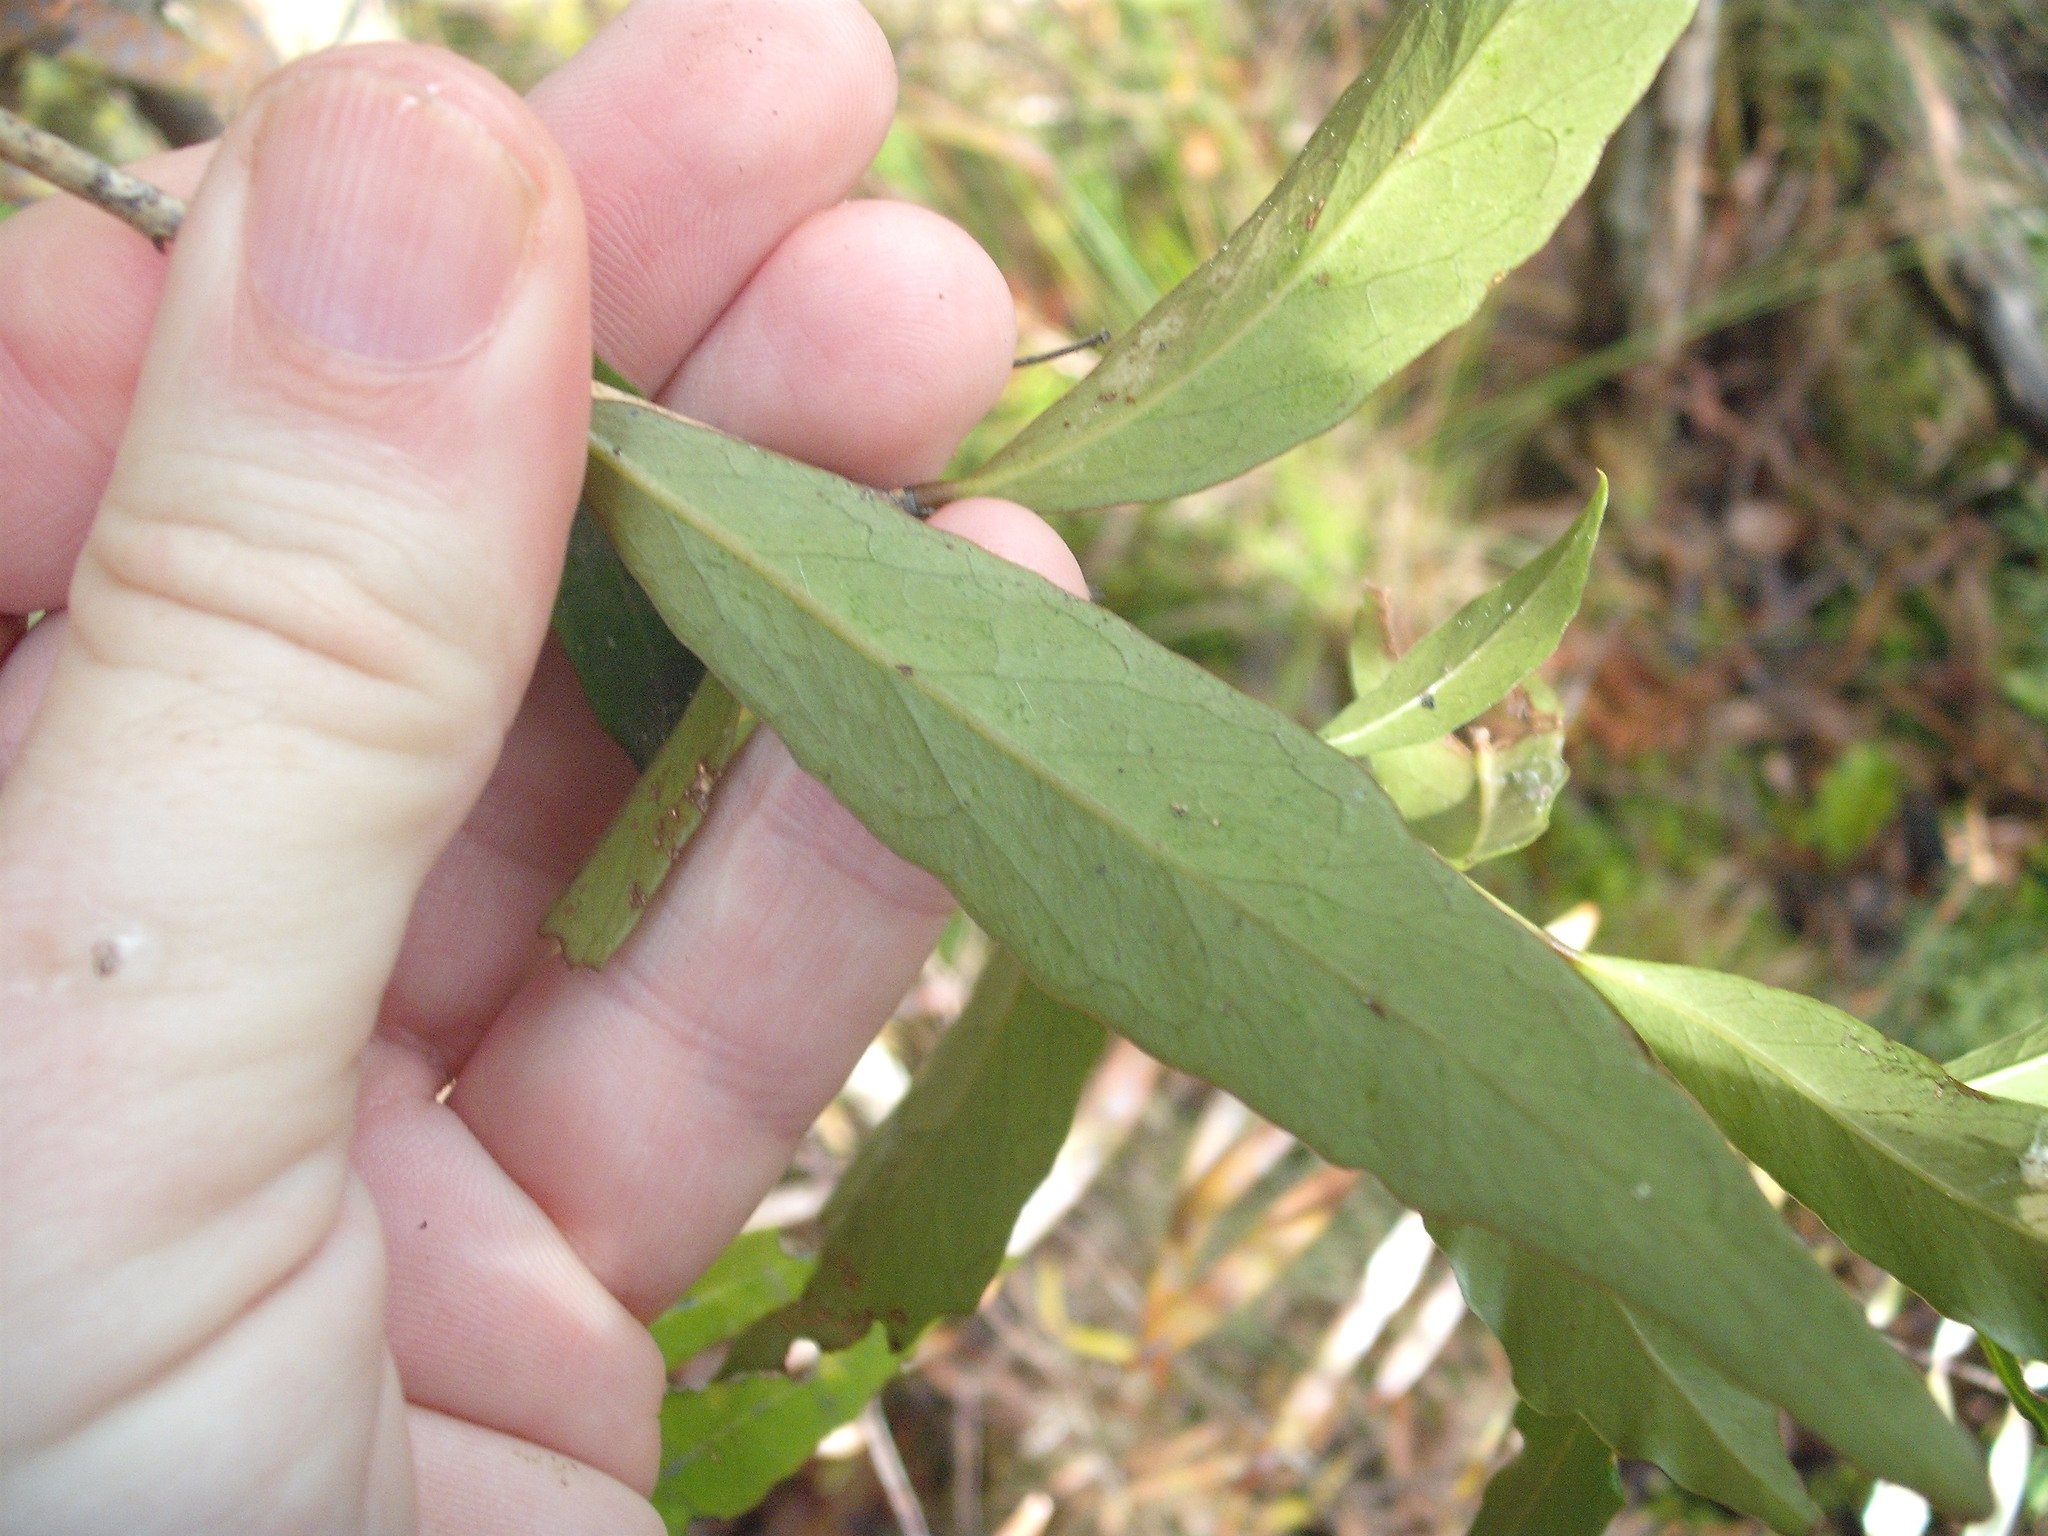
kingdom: Plantae
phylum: Tracheophyta
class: Magnoliopsida
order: Santalales
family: Nanodeaceae
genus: Mida
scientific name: Mida salicifolia
